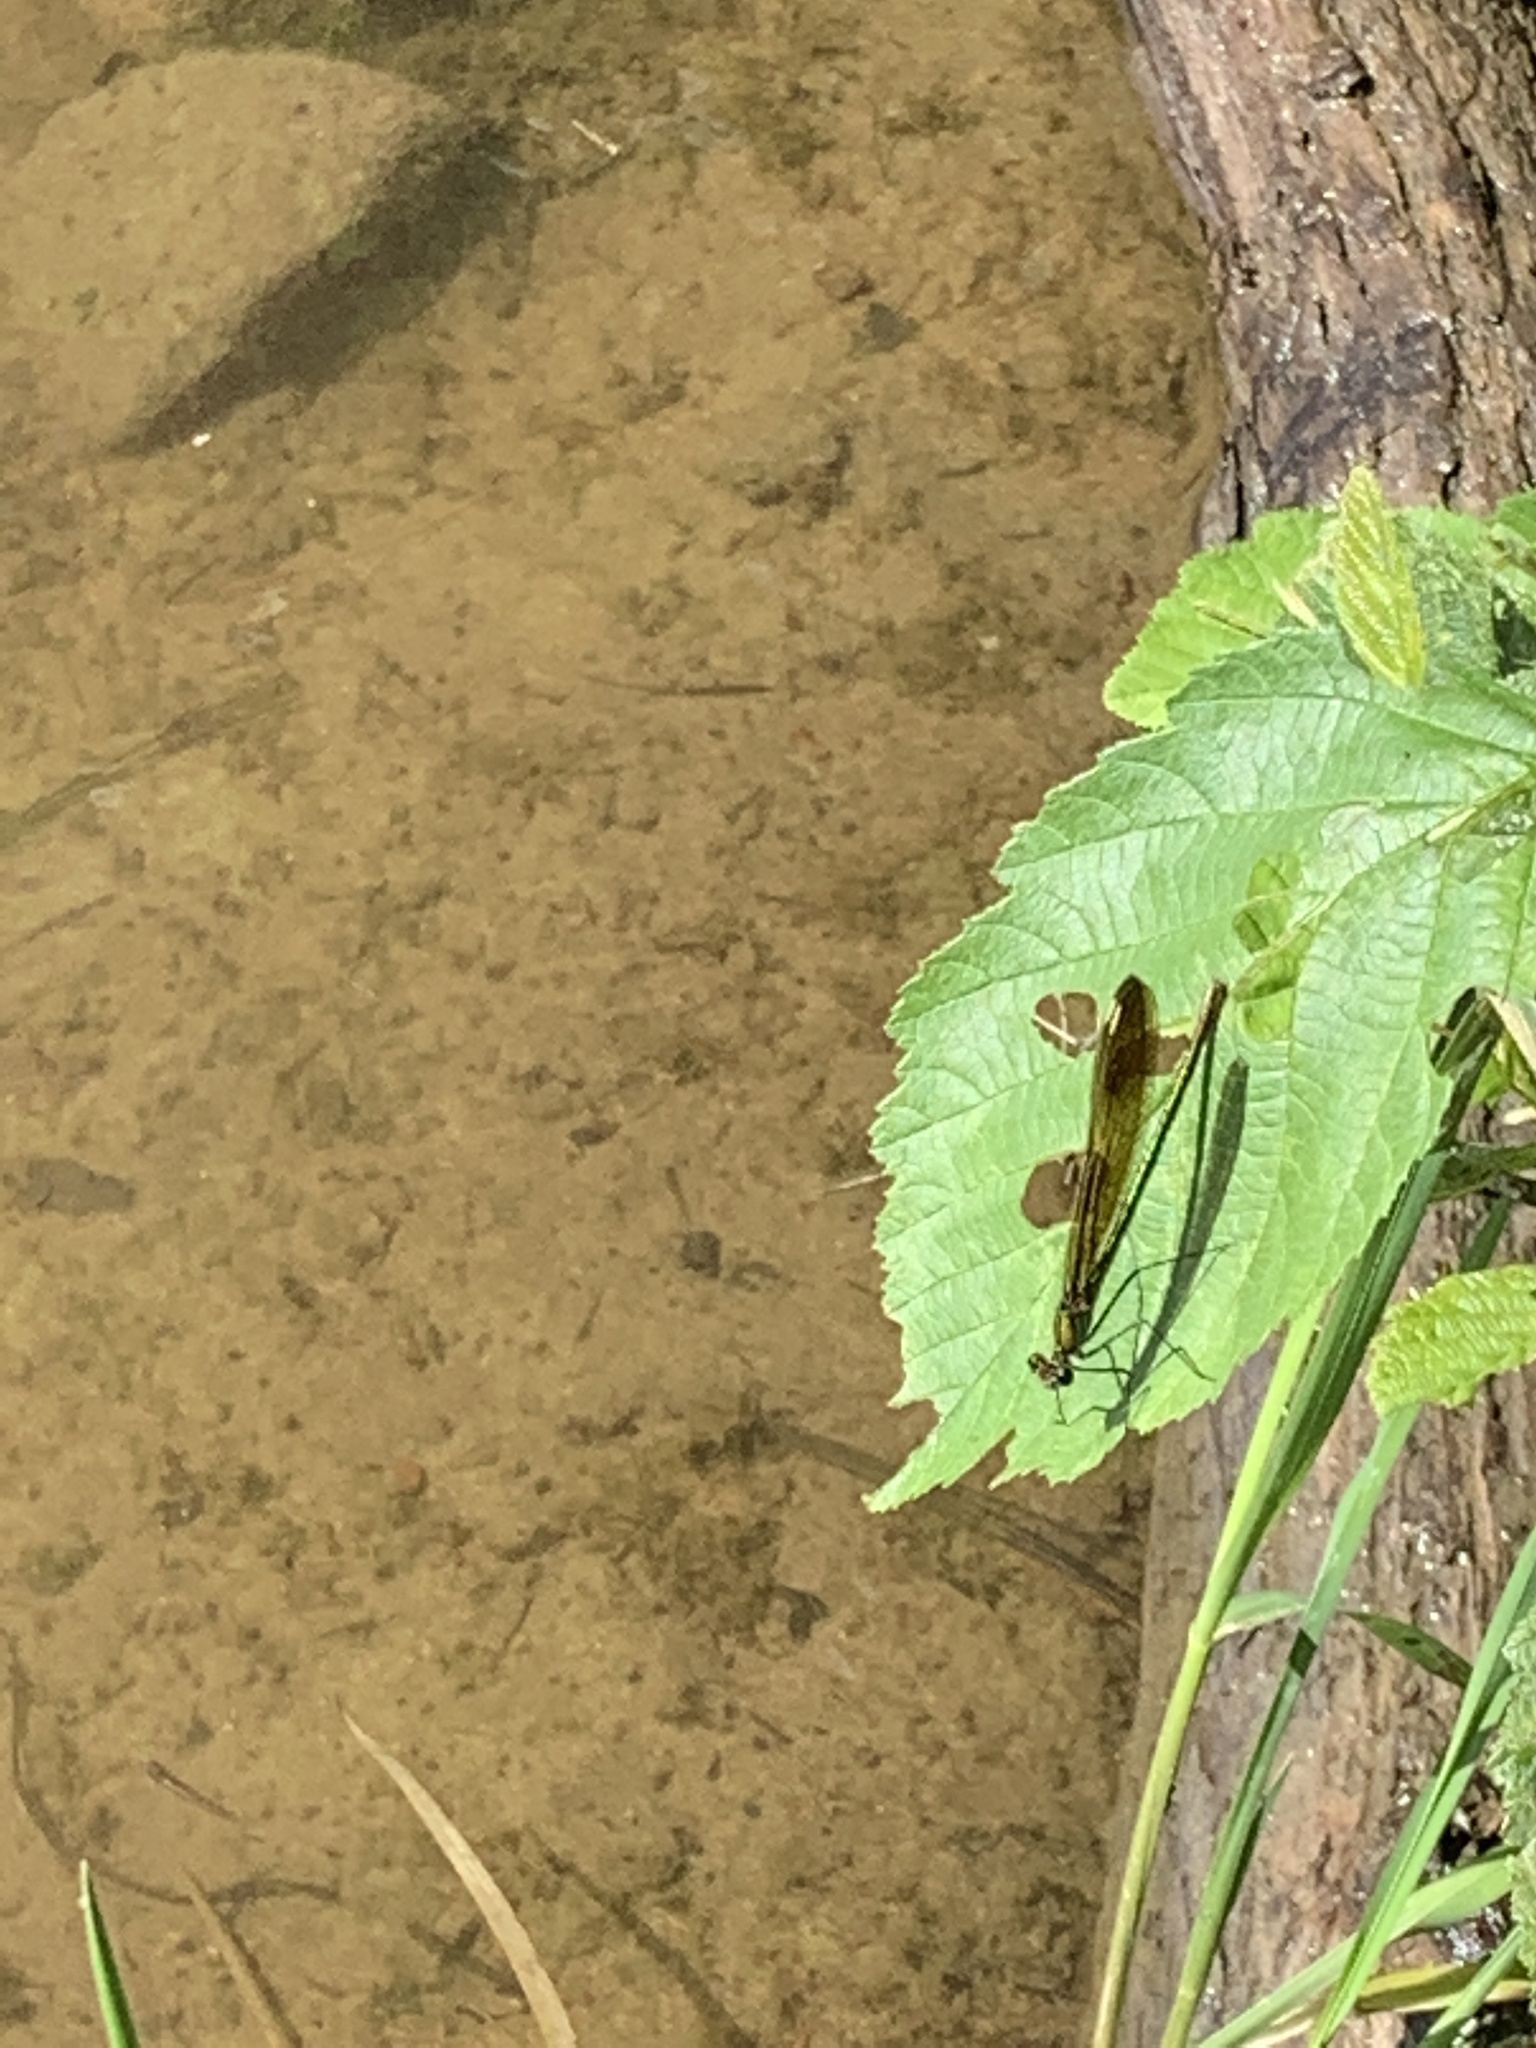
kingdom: Animalia
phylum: Arthropoda
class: Insecta
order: Odonata
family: Calopterygidae
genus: Calopteryx
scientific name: Calopteryx aequabilis
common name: River jewelwing
